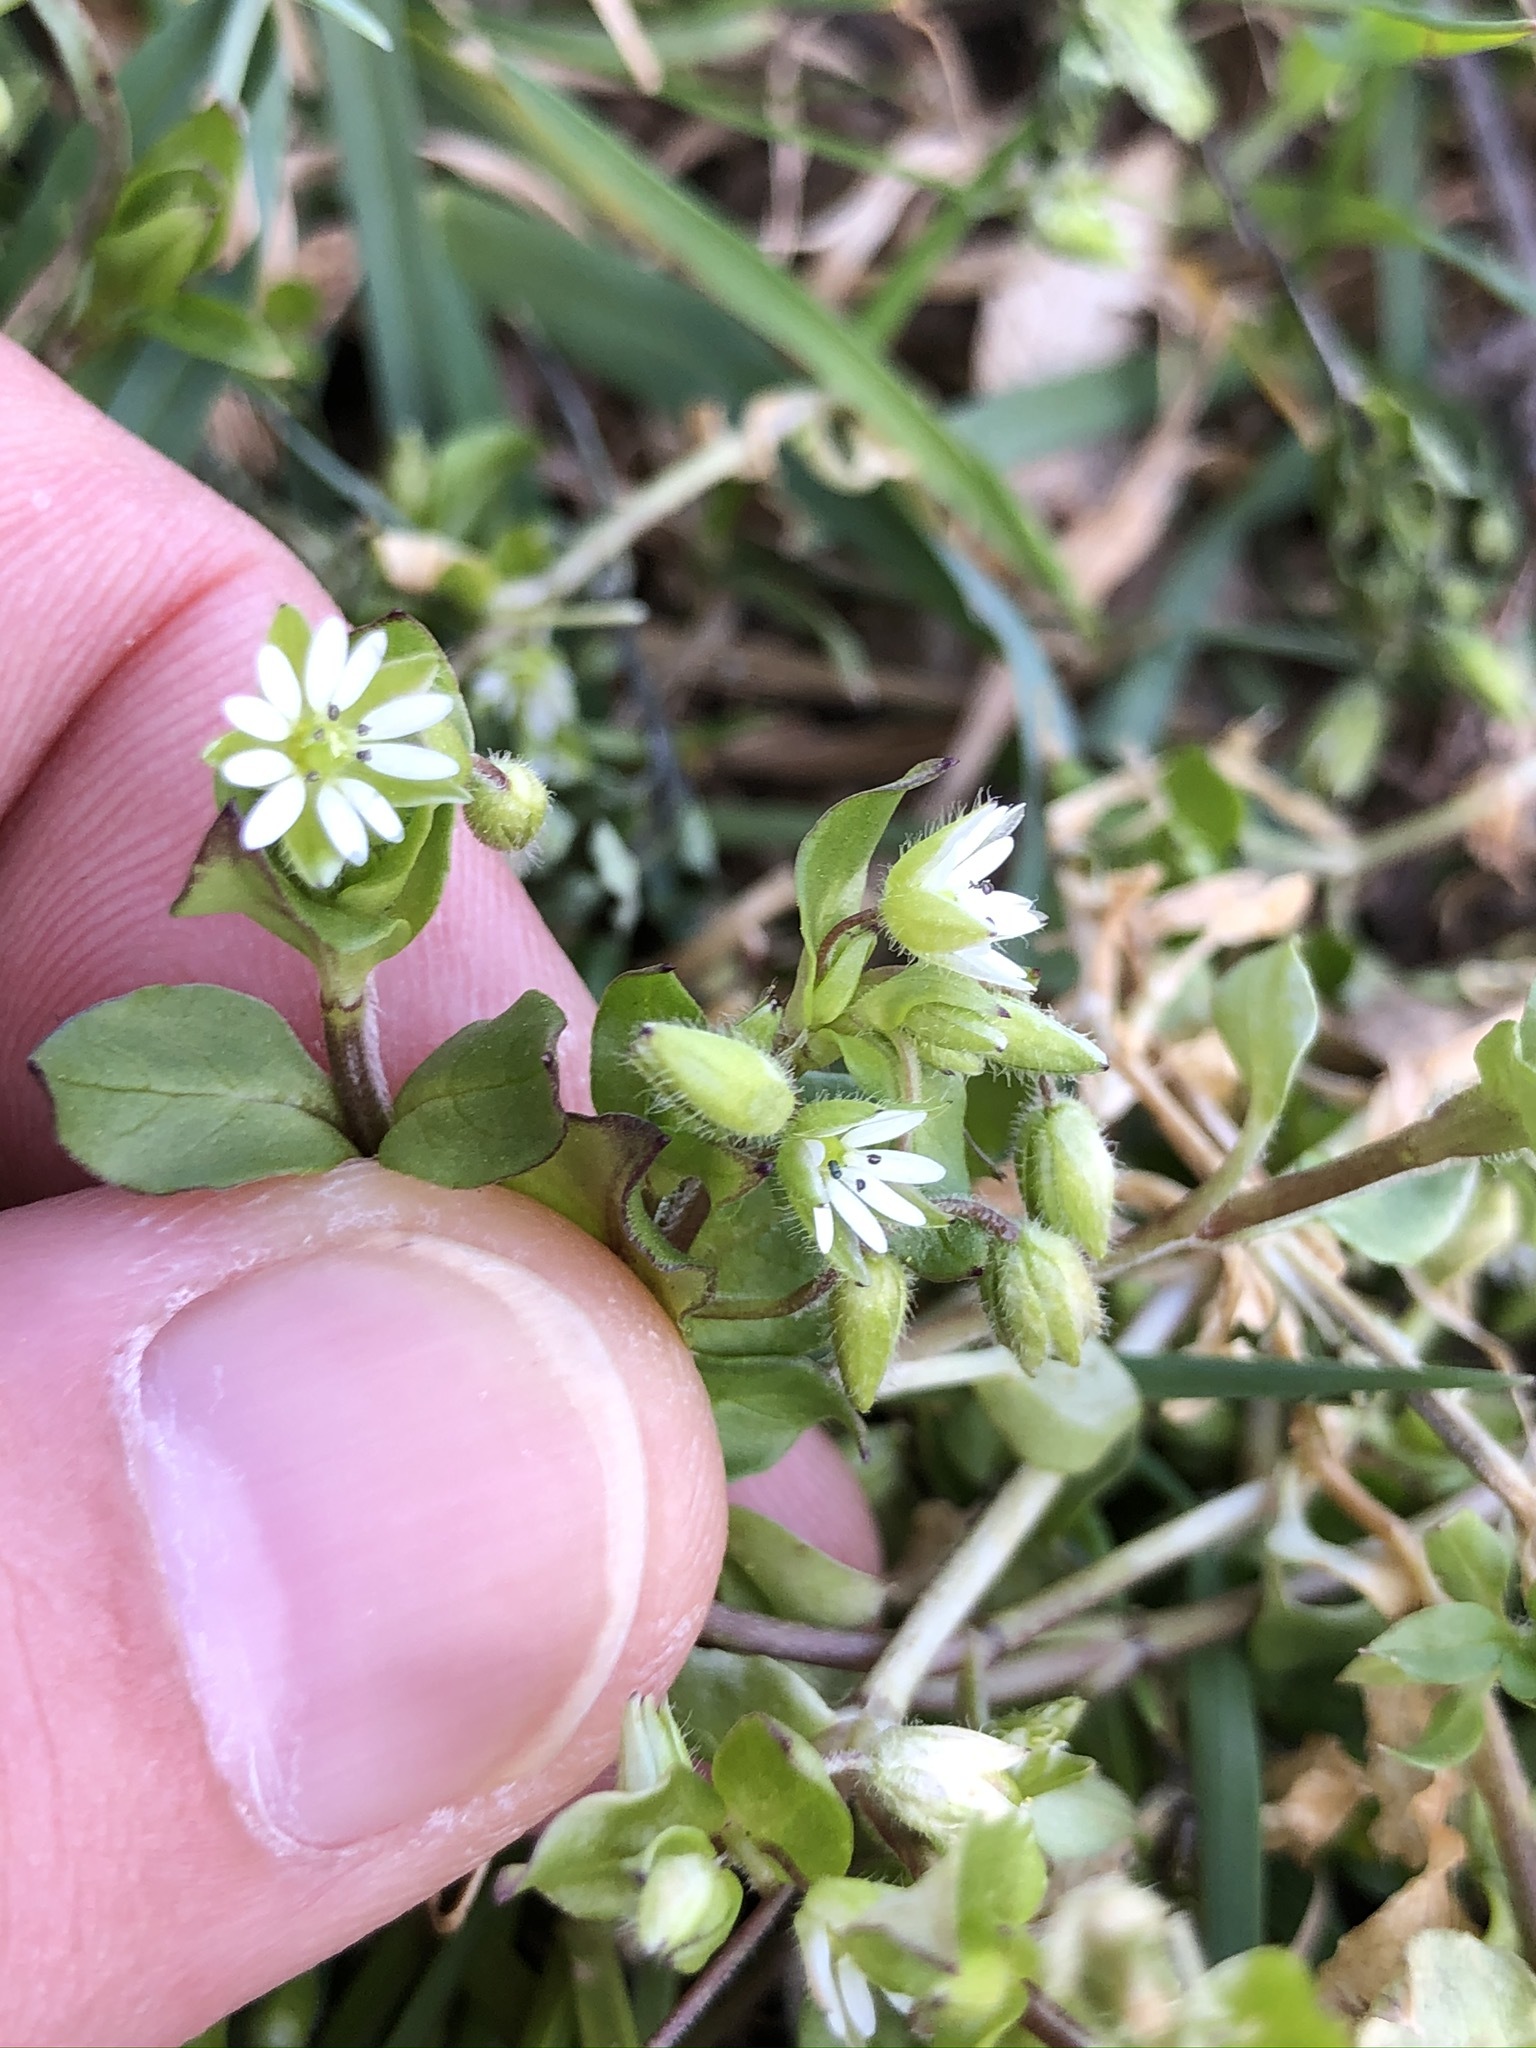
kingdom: Plantae
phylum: Tracheophyta
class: Magnoliopsida
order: Caryophyllales
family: Caryophyllaceae
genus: Stellaria
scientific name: Stellaria media
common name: Common chickweed
